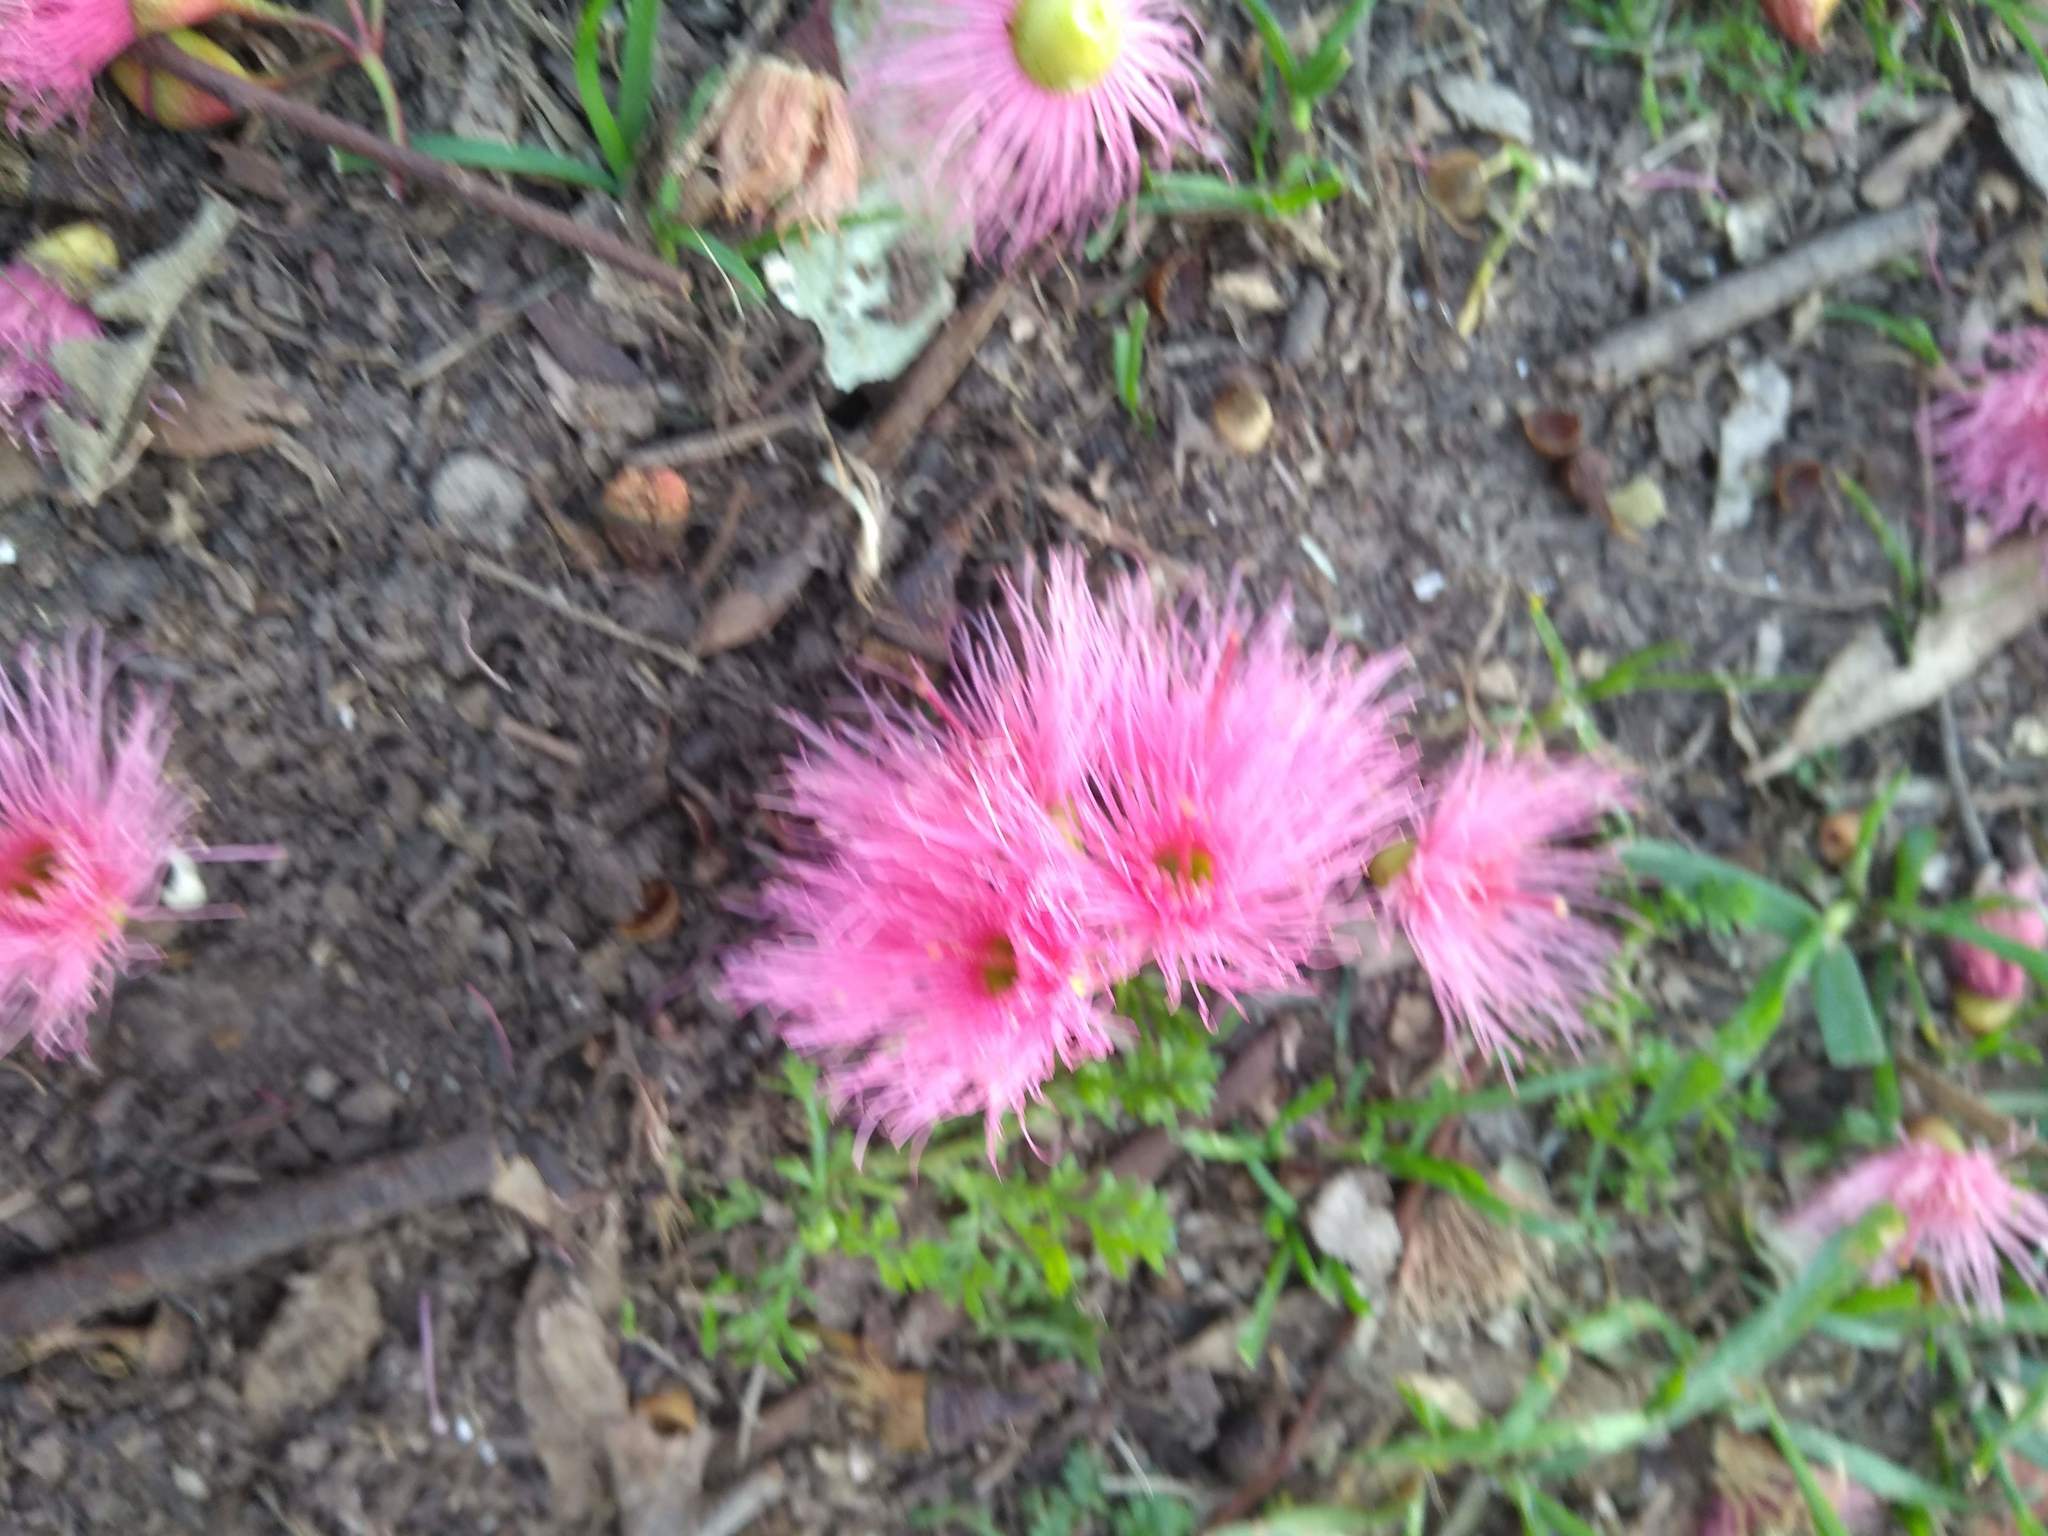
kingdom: Plantae
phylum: Tracheophyta
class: Magnoliopsida
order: Myrtales
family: Myrtaceae
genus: Eucalyptus
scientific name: Eucalyptus sideroxylon
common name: Red ironbark
